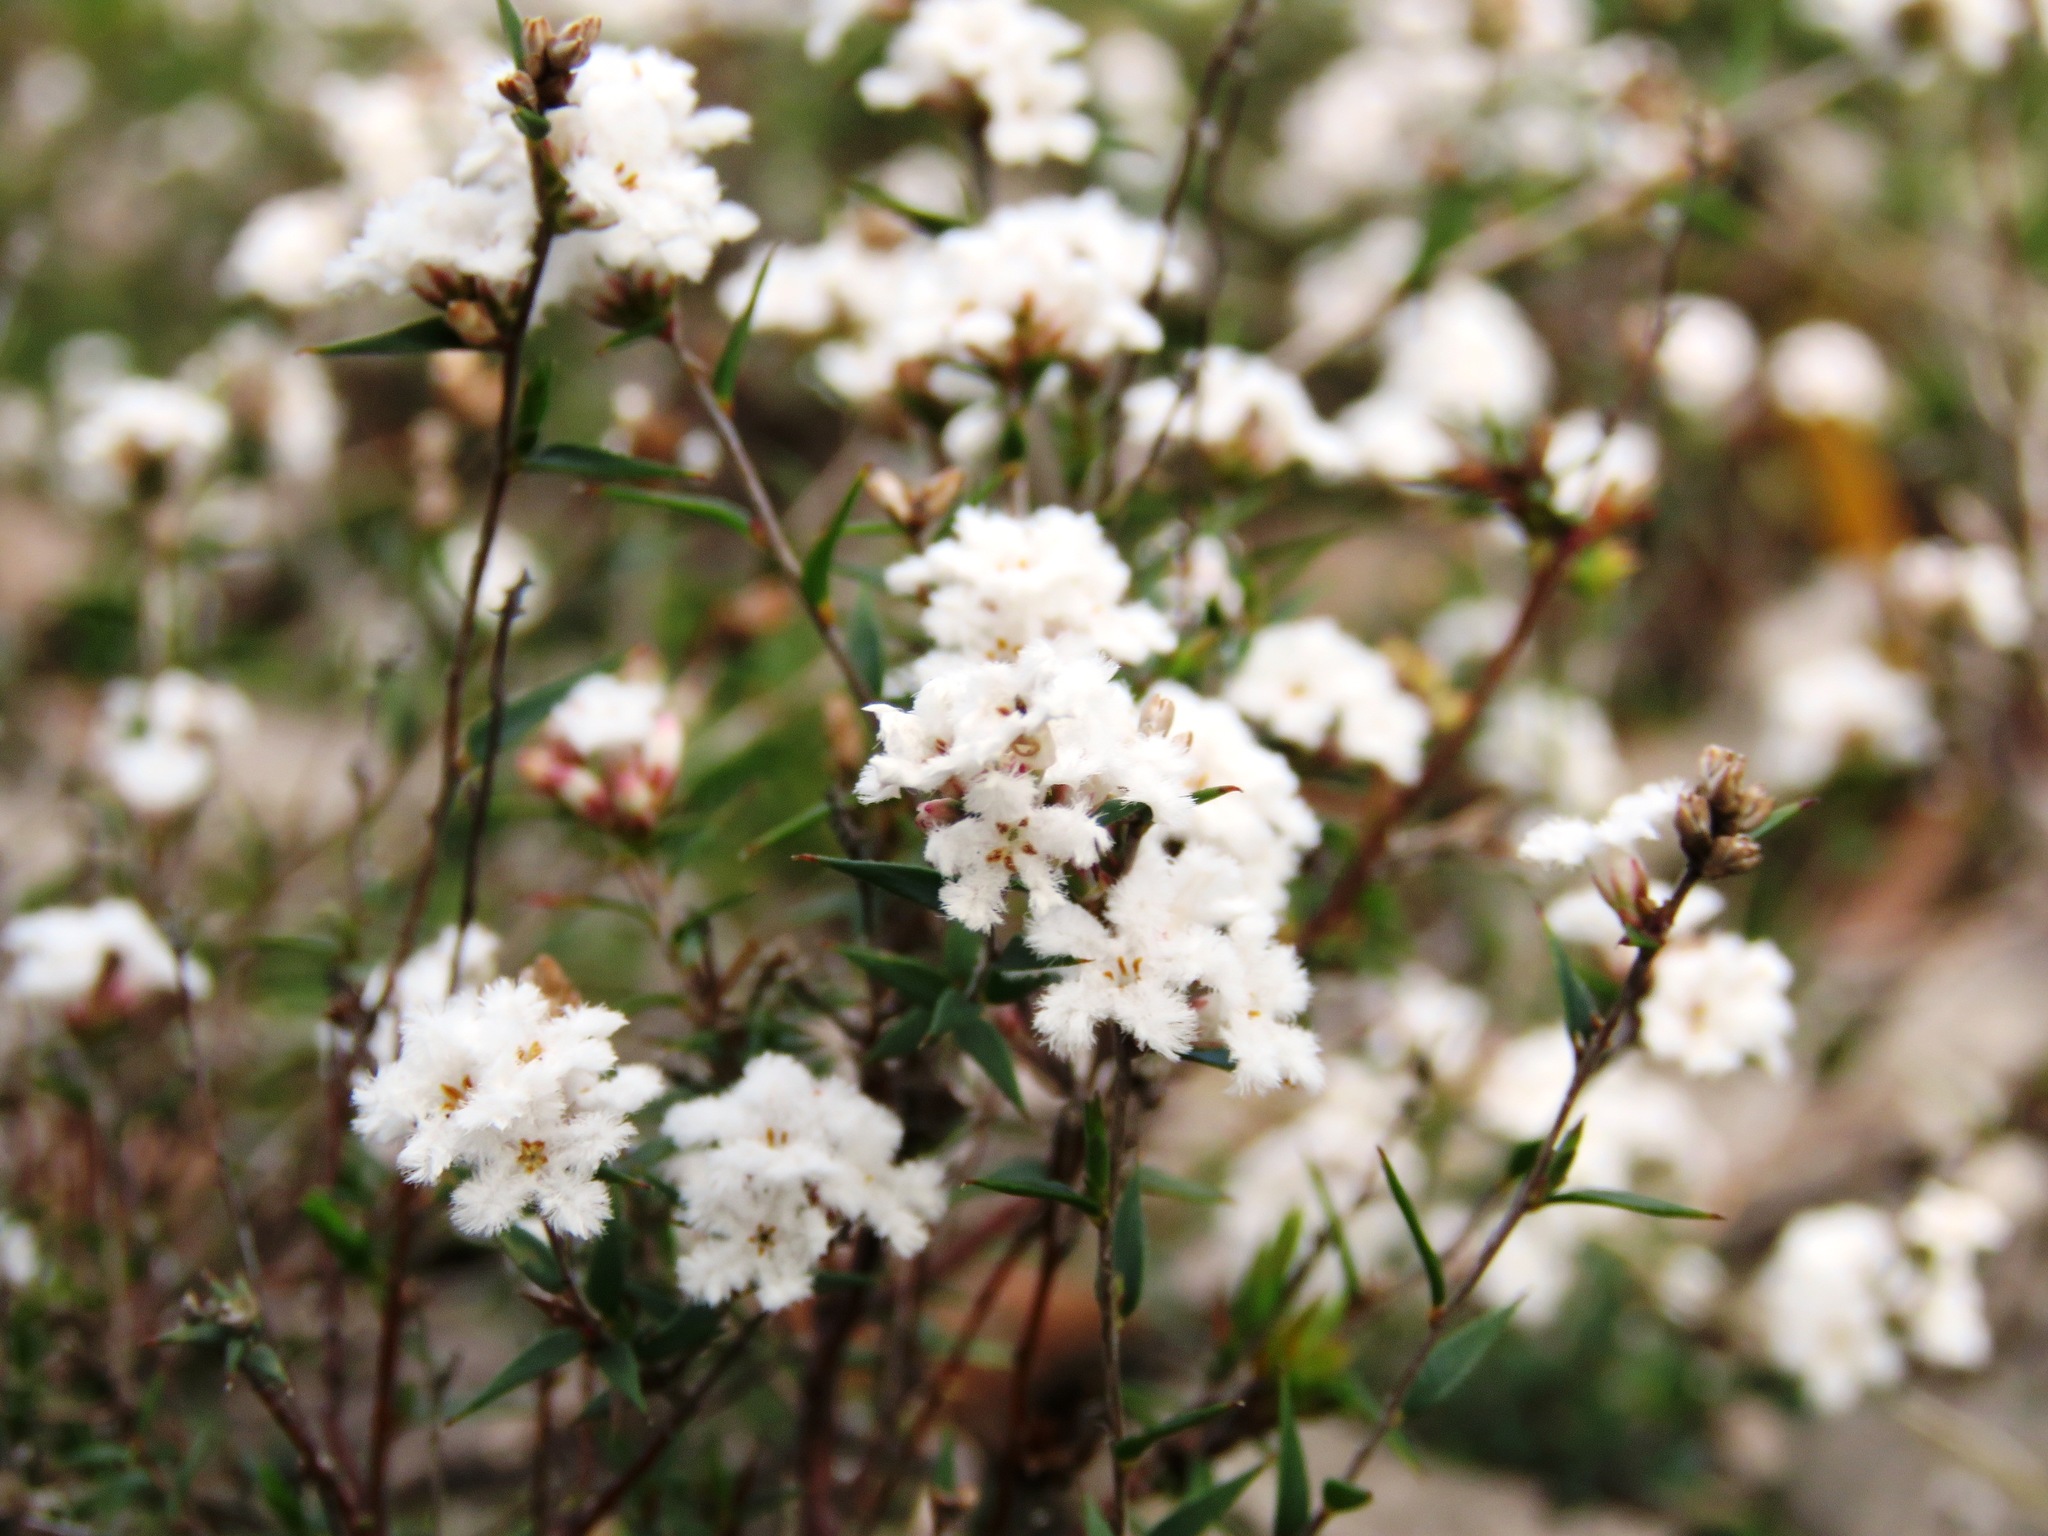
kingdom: Plantae
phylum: Tracheophyta
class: Magnoliopsida
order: Ericales
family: Ericaceae
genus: Leucopogon
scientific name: Leucopogon virgatus
